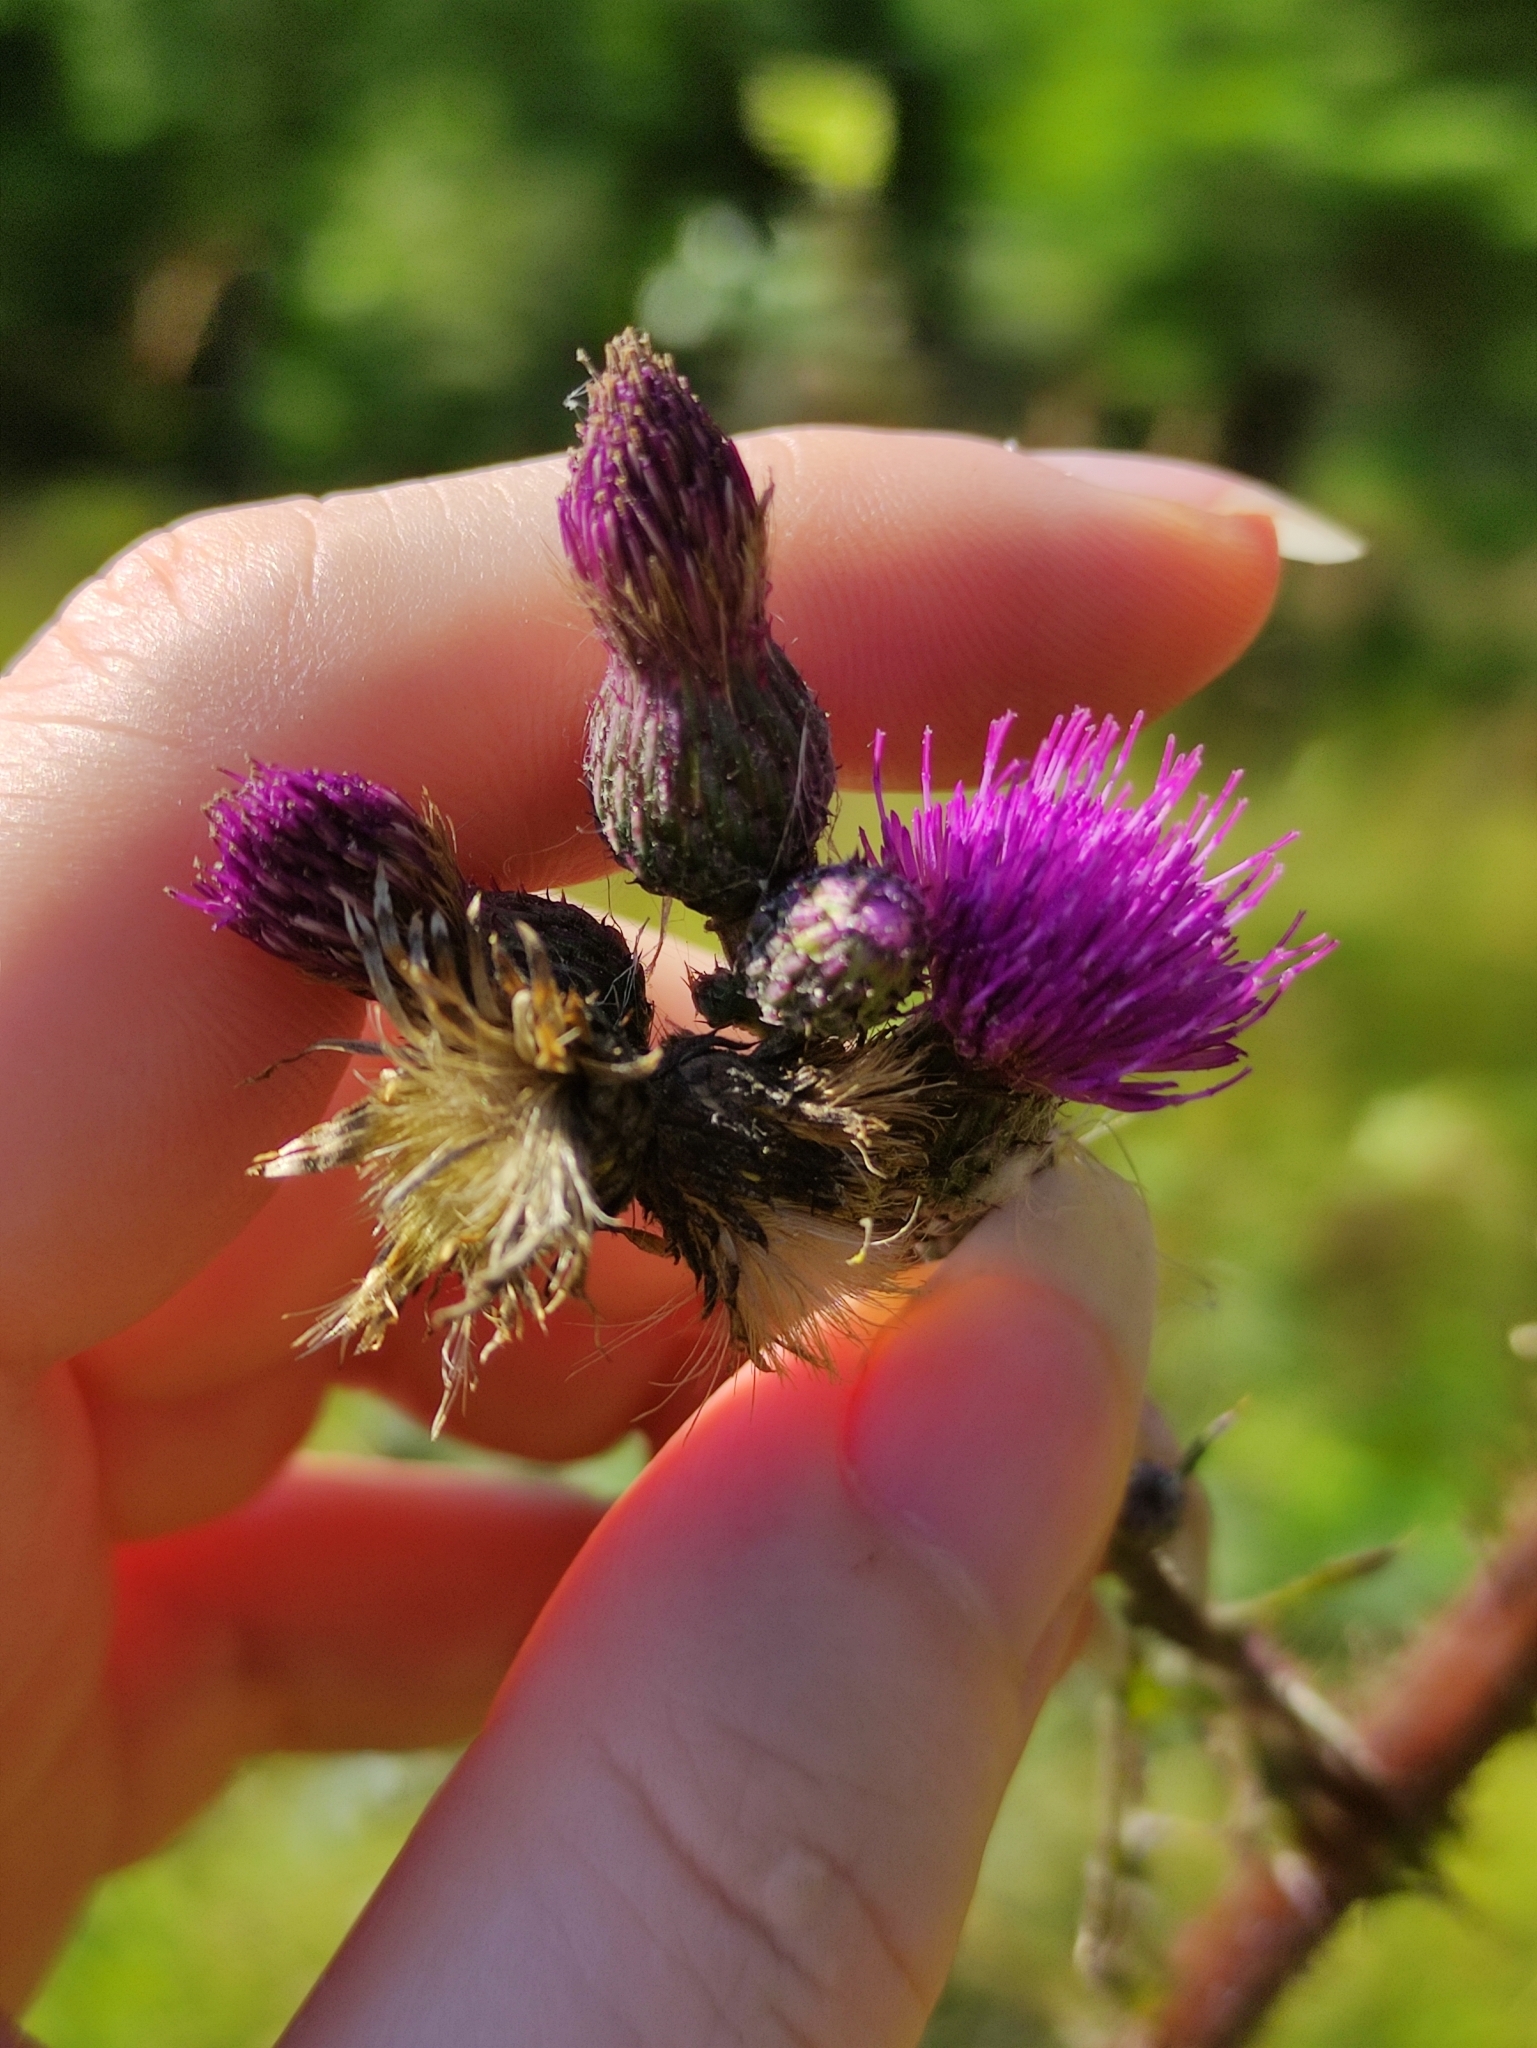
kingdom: Plantae
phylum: Tracheophyta
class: Magnoliopsida
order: Asterales
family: Asteraceae
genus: Cirsium
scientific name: Cirsium palustre
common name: Marsh thistle
